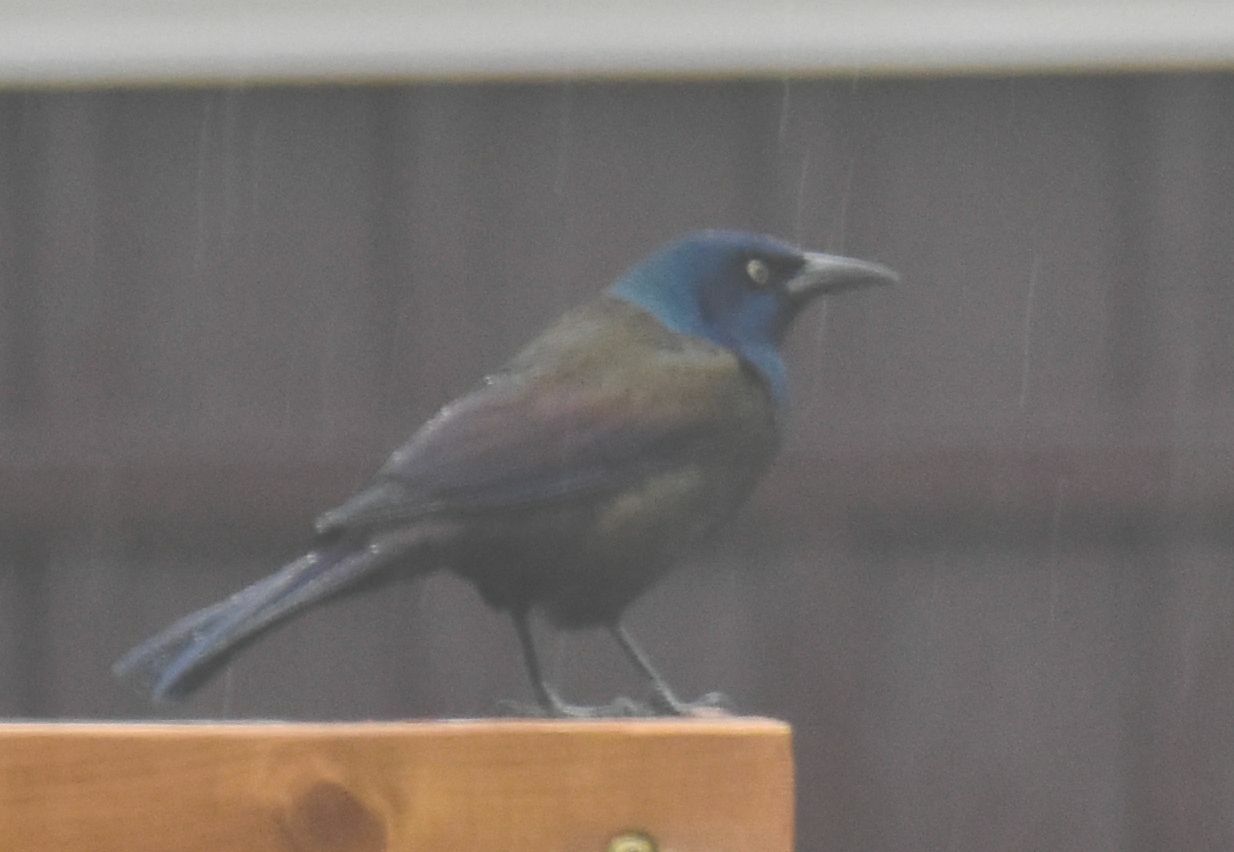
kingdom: Animalia
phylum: Chordata
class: Aves
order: Passeriformes
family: Icteridae
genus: Quiscalus
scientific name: Quiscalus quiscula
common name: Common grackle
